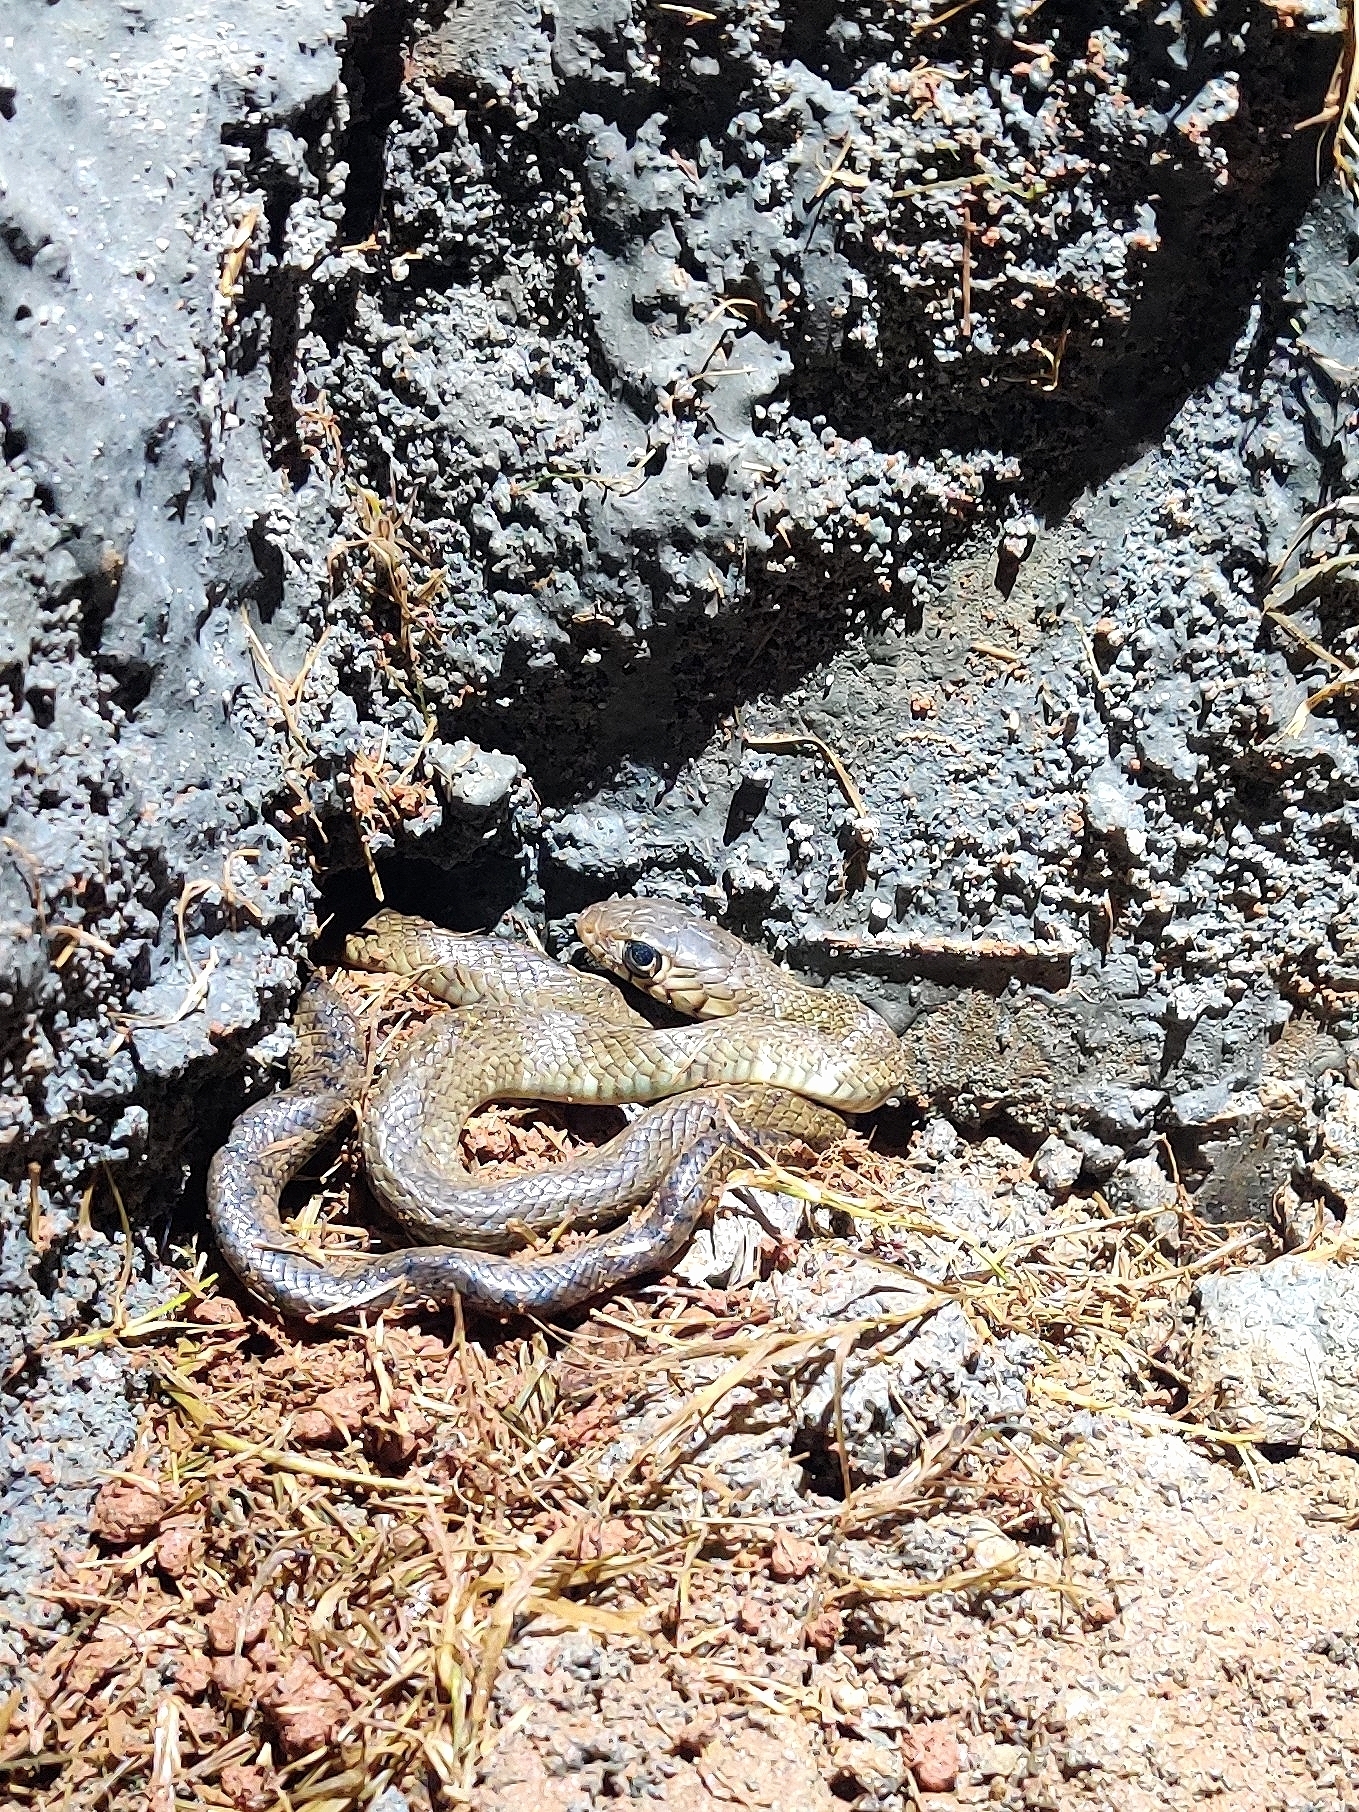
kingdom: Animalia
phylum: Chordata
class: Squamata
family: Colubridae
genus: Ptyas
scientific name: Ptyas mucosa
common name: Oriental ratsnake
